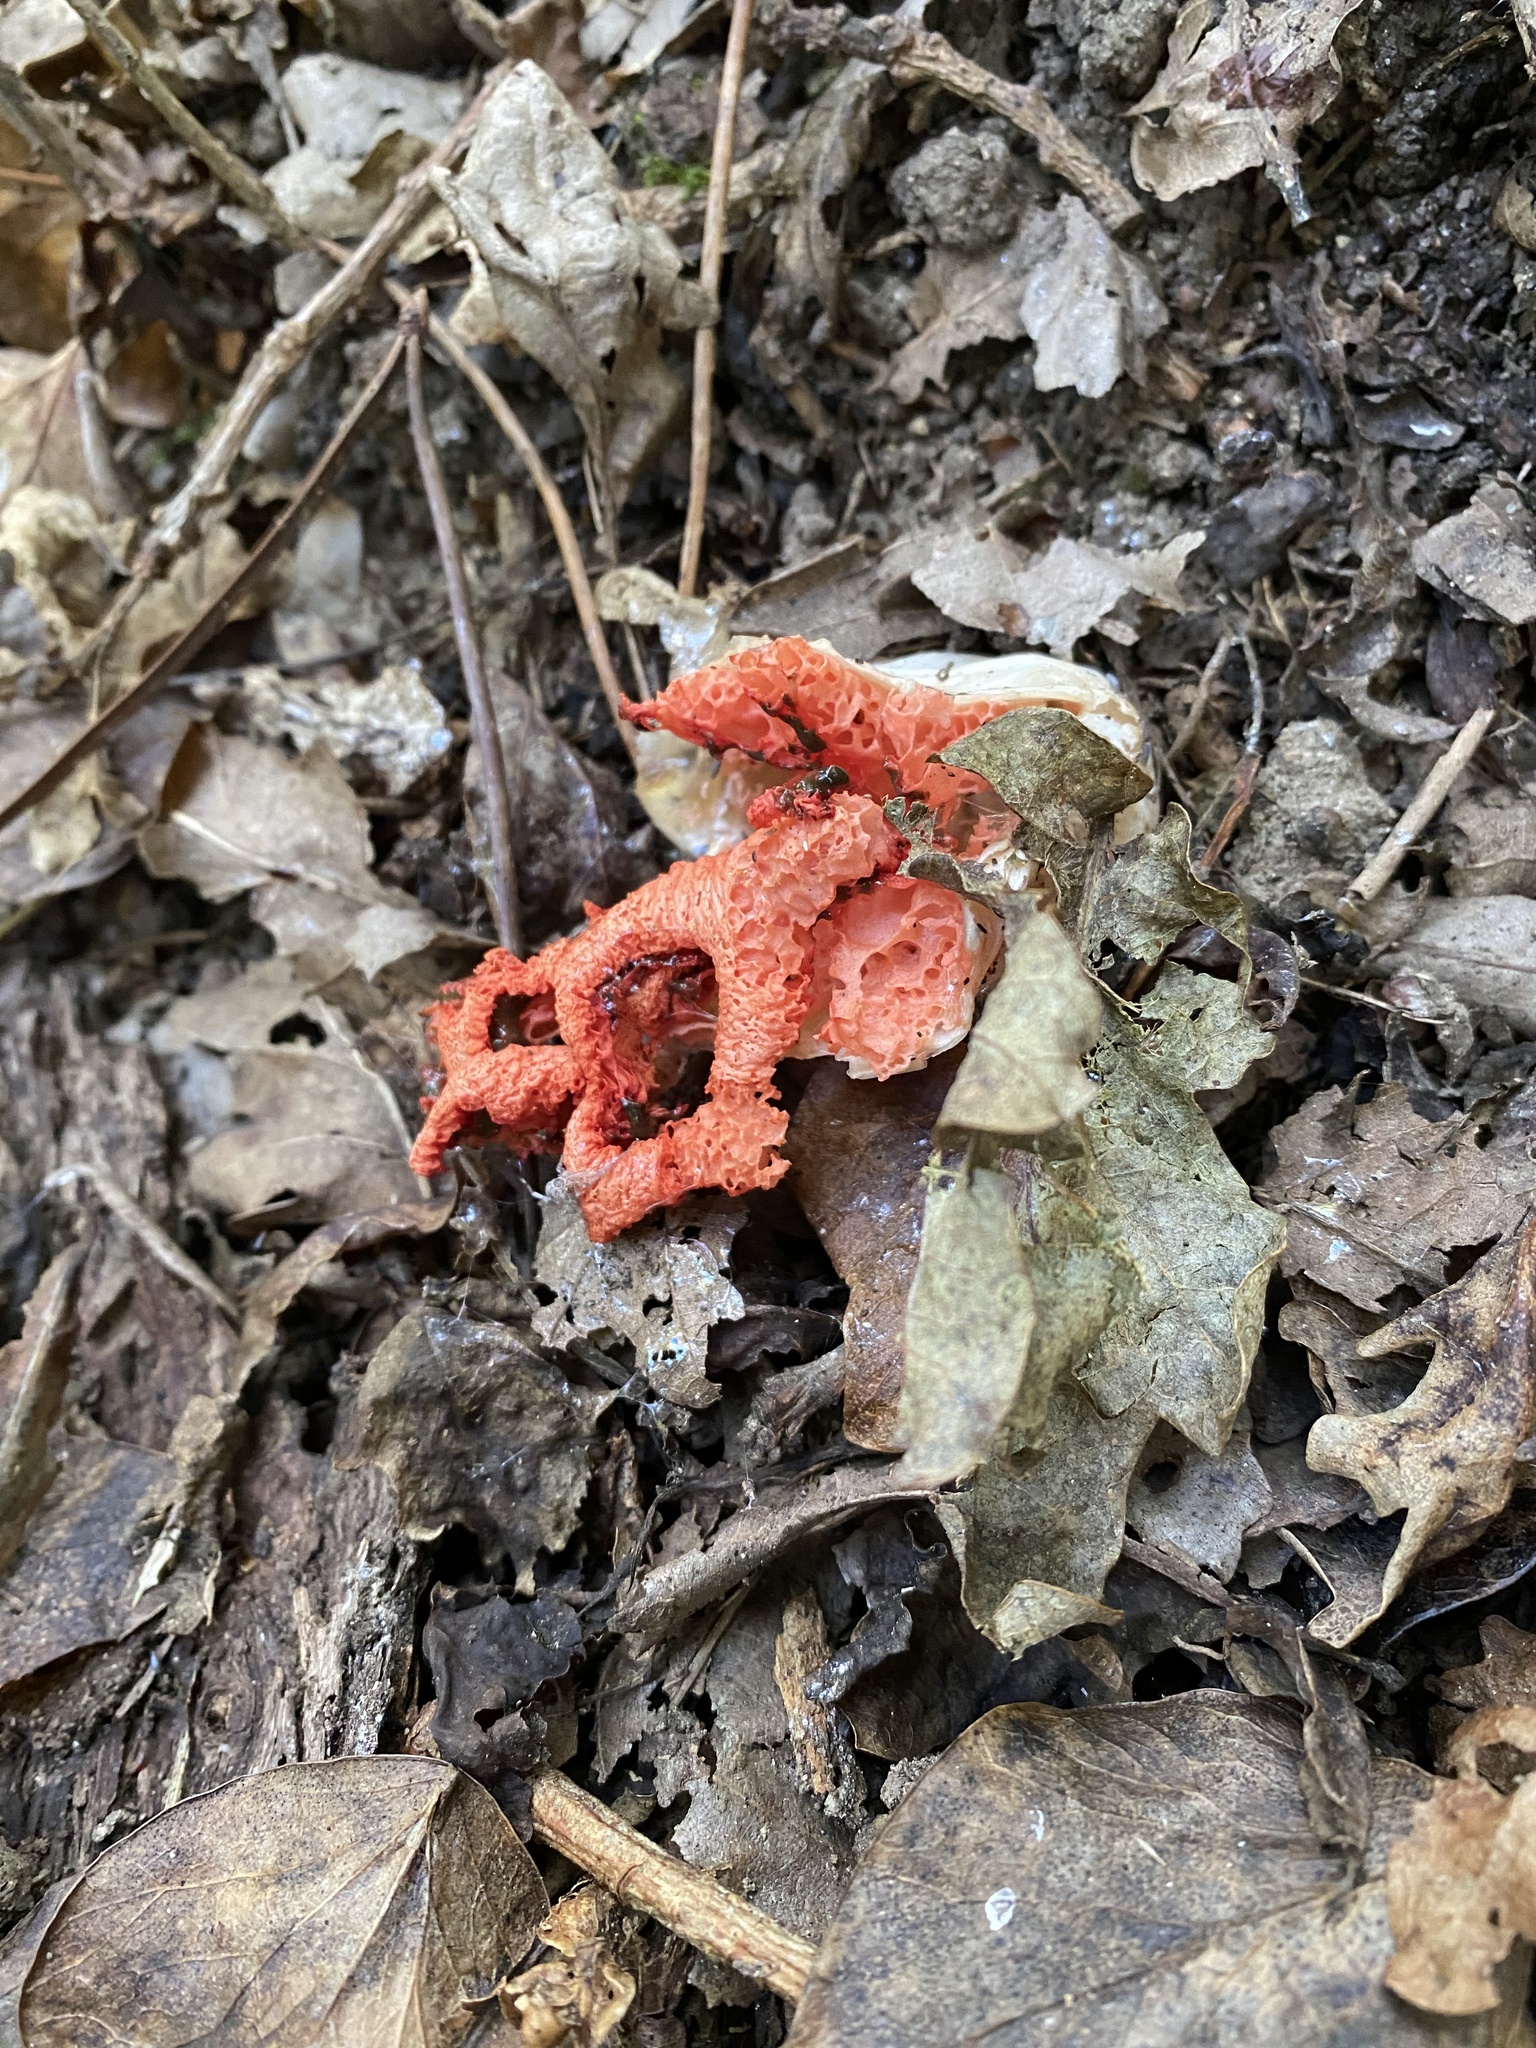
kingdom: Fungi
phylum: Basidiomycota
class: Agaricomycetes
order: Phallales
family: Phallaceae
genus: Clathrus
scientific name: Clathrus ruber
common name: Red cage
